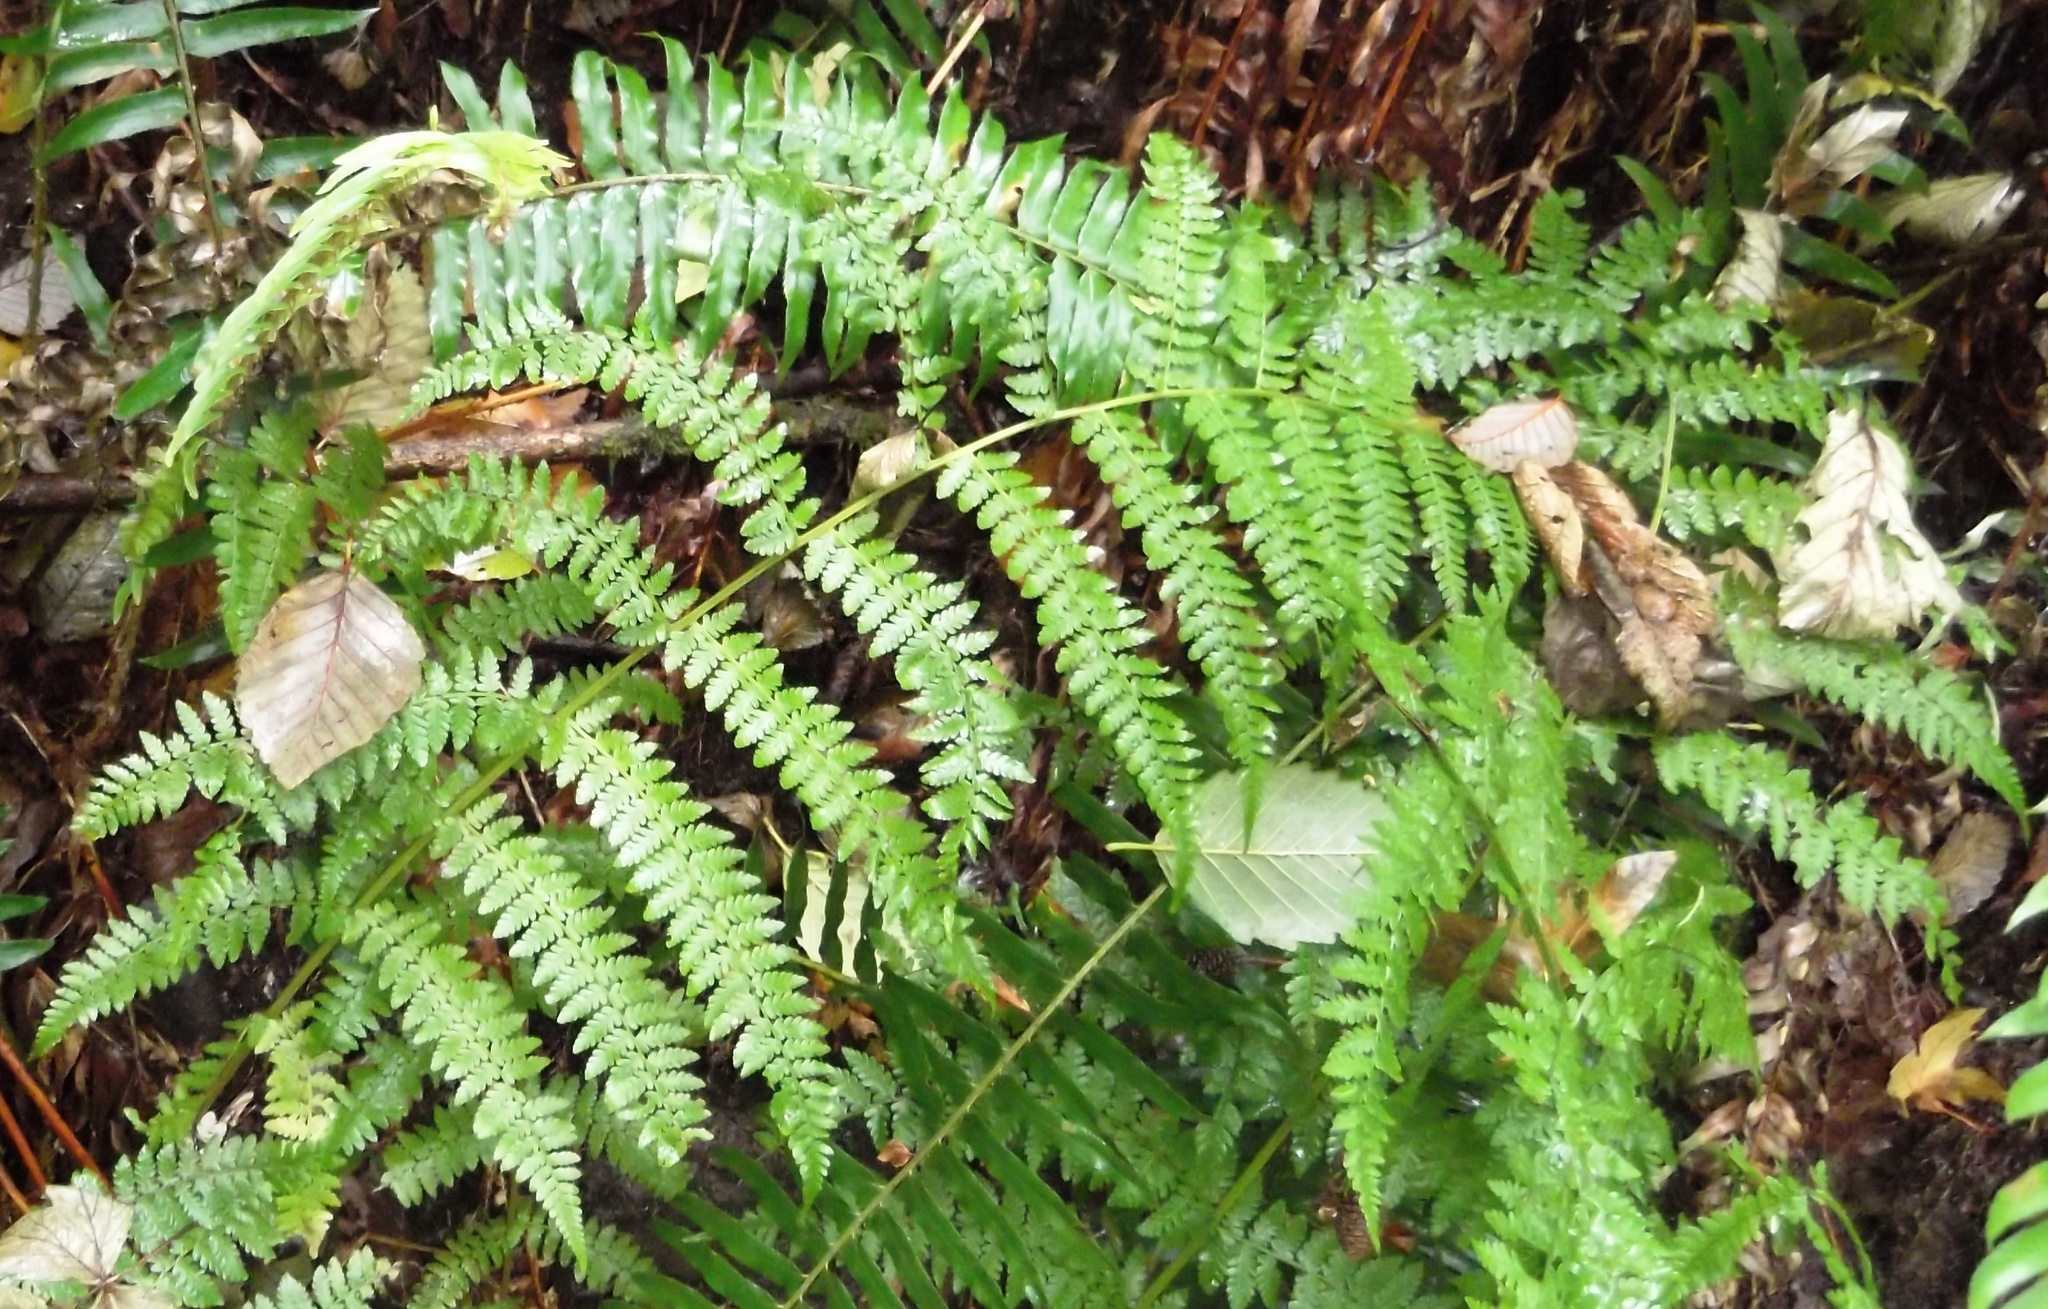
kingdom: Plantae
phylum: Tracheophyta
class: Polypodiopsida
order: Polypodiales
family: Athyriaceae
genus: Athyrium
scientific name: Athyrium filix-femina
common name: Lady fern
